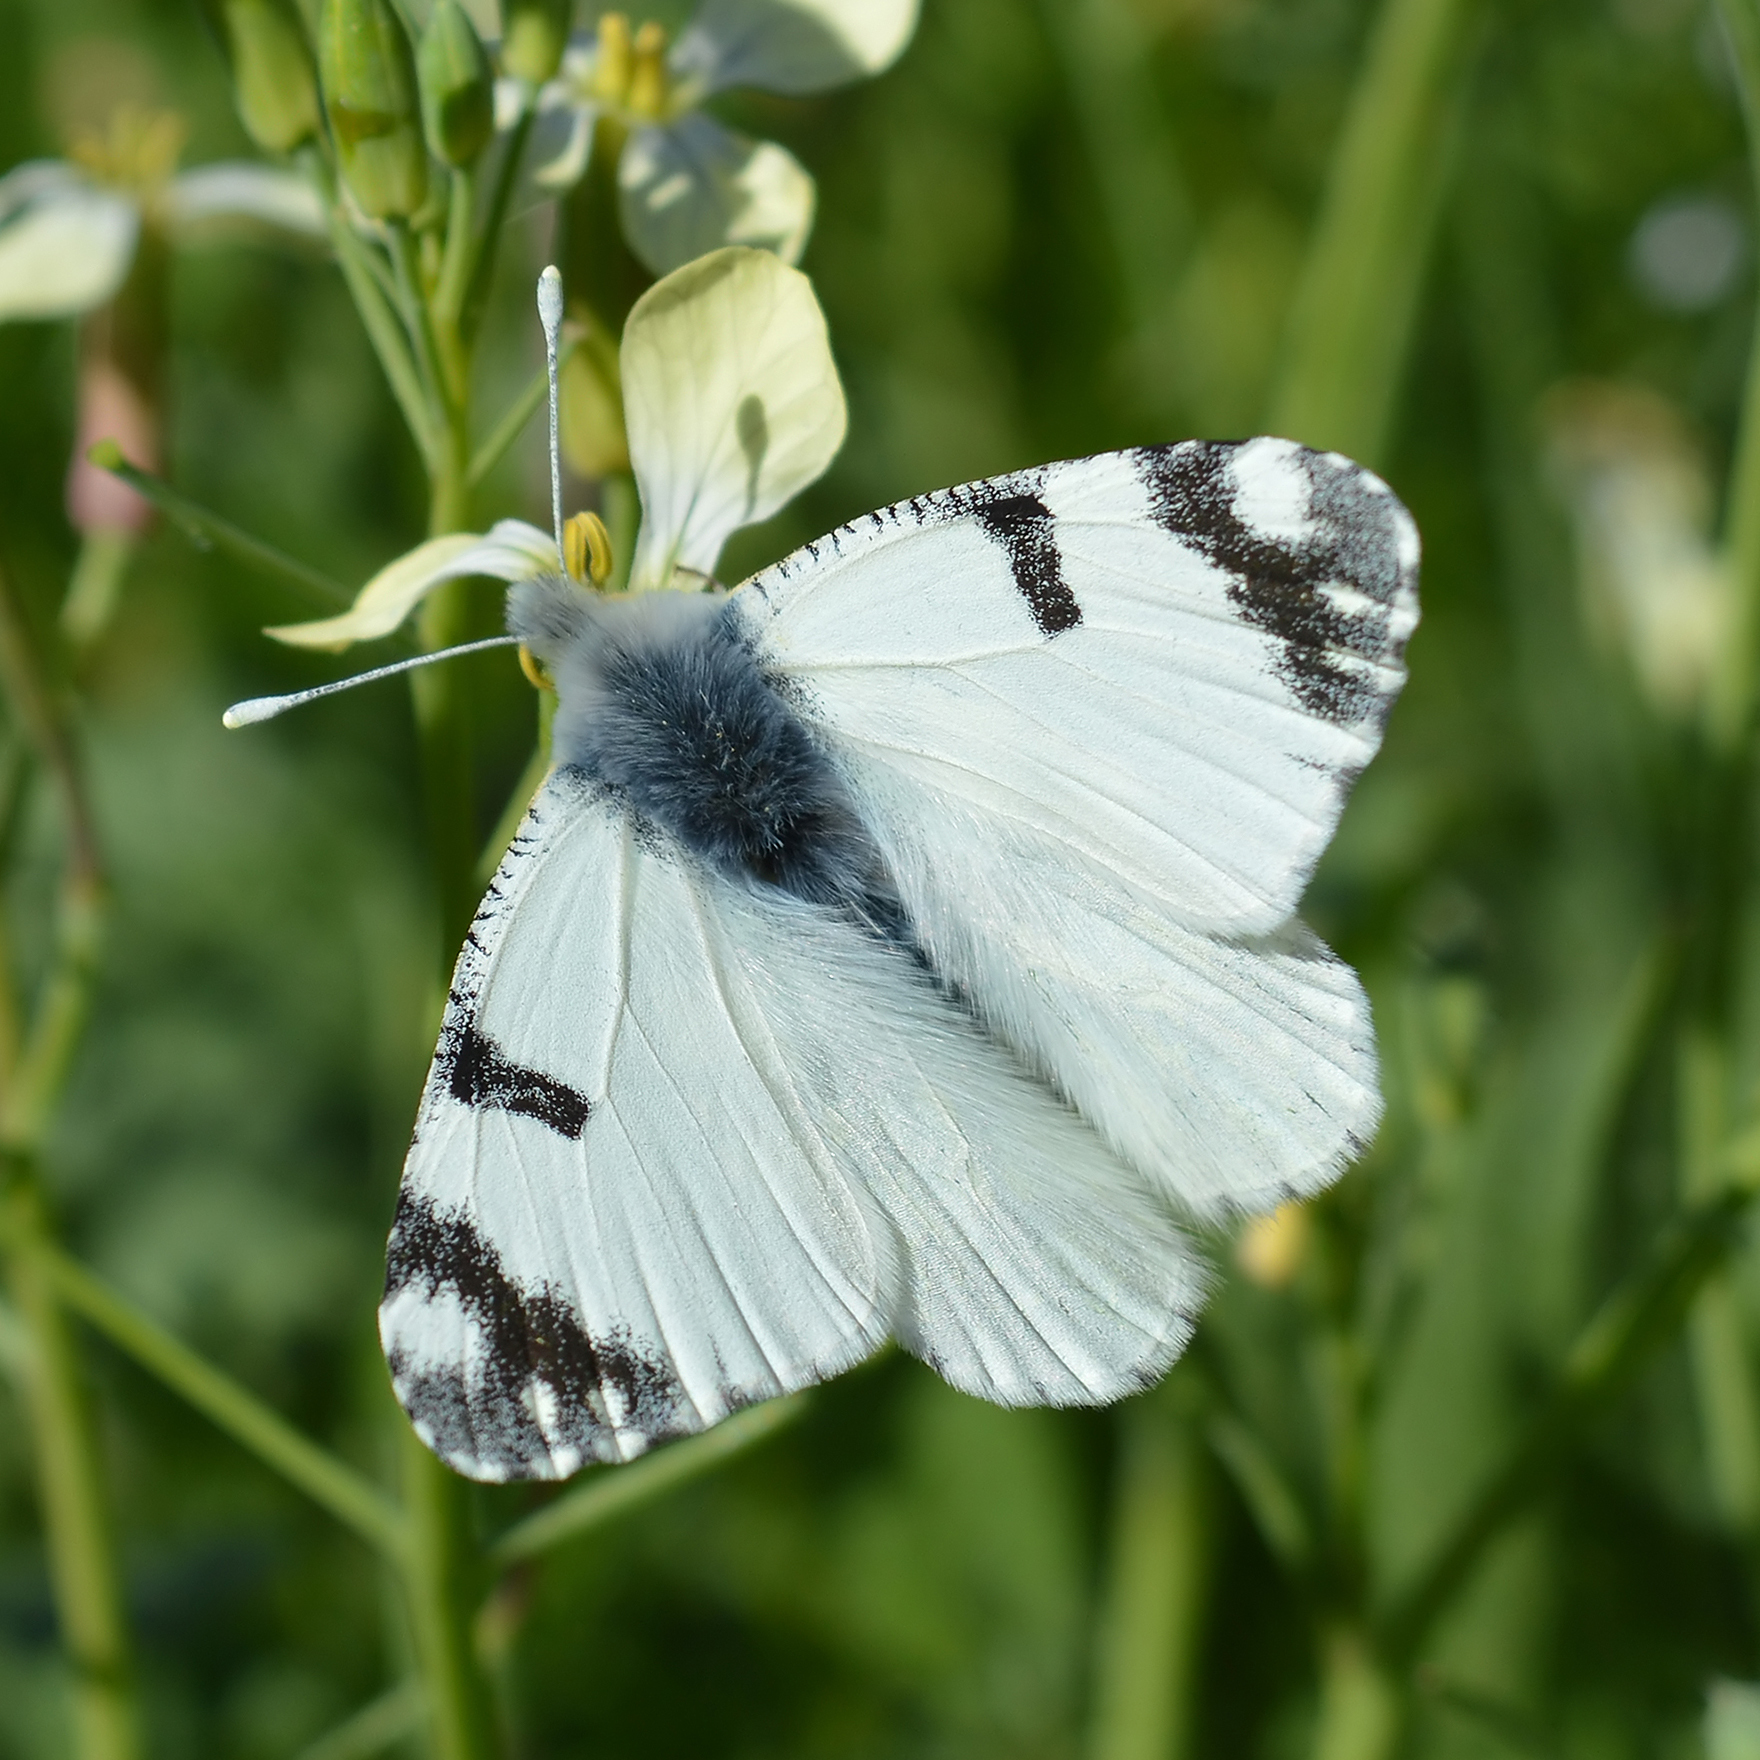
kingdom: Animalia
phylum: Arthropoda
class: Insecta
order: Lepidoptera
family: Pieridae
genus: Euchloe
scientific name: Euchloe ausonia
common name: Eastern dappled white
